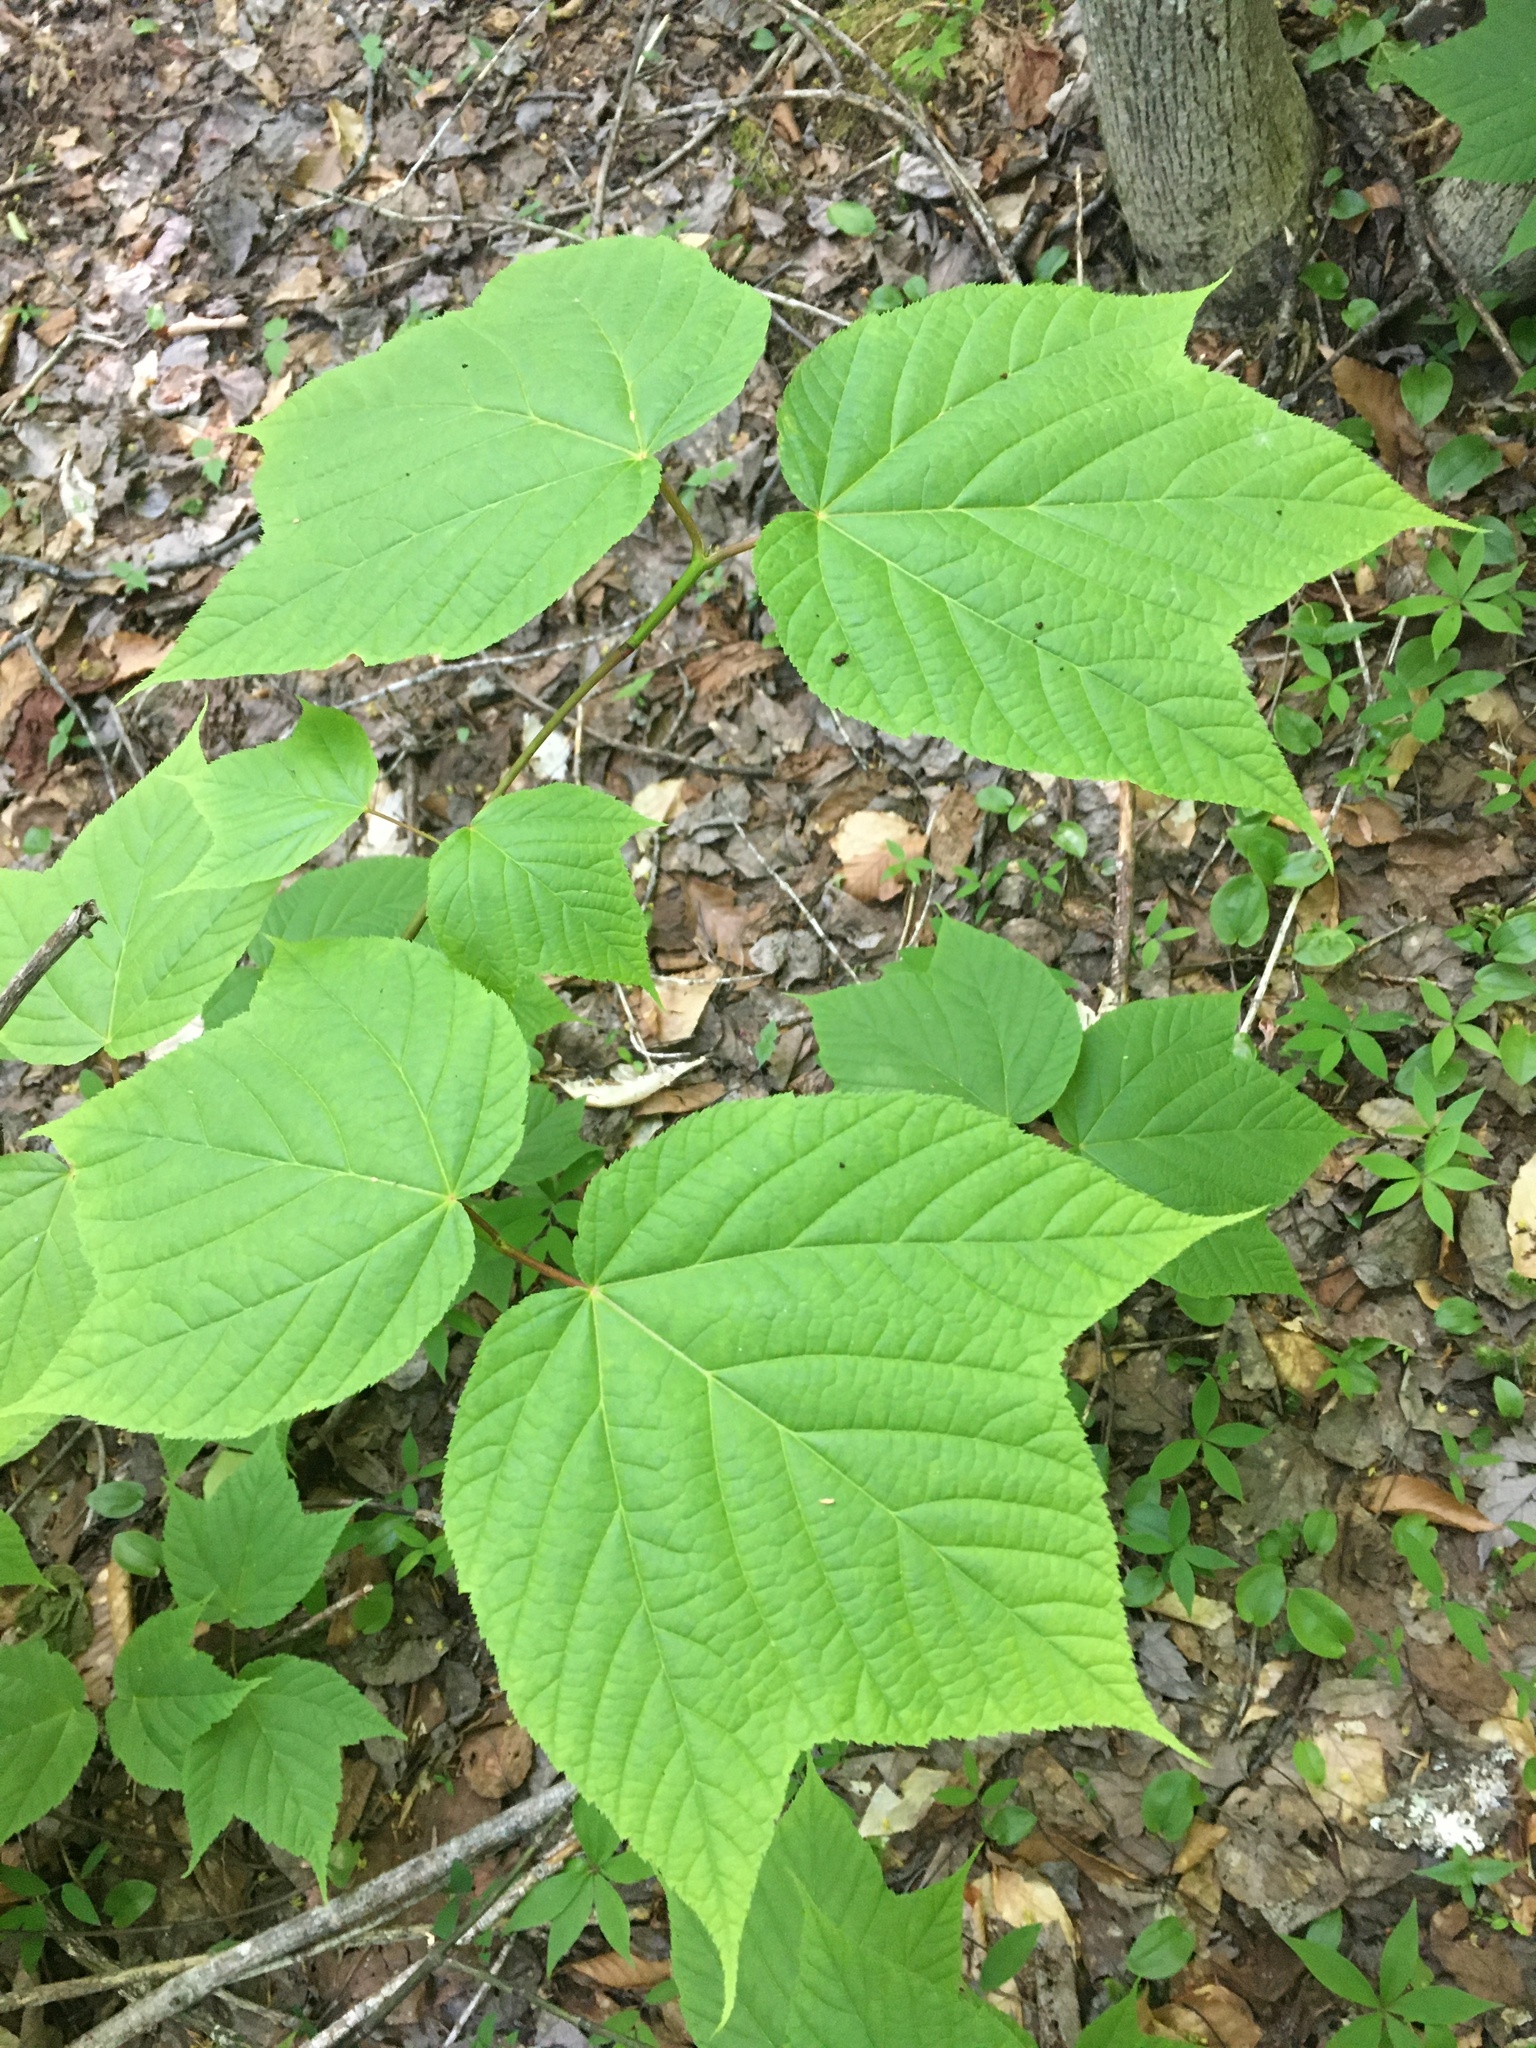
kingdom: Plantae
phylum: Tracheophyta
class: Magnoliopsida
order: Sapindales
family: Sapindaceae
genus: Acer
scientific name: Acer pensylvanicum
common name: Moosewood
